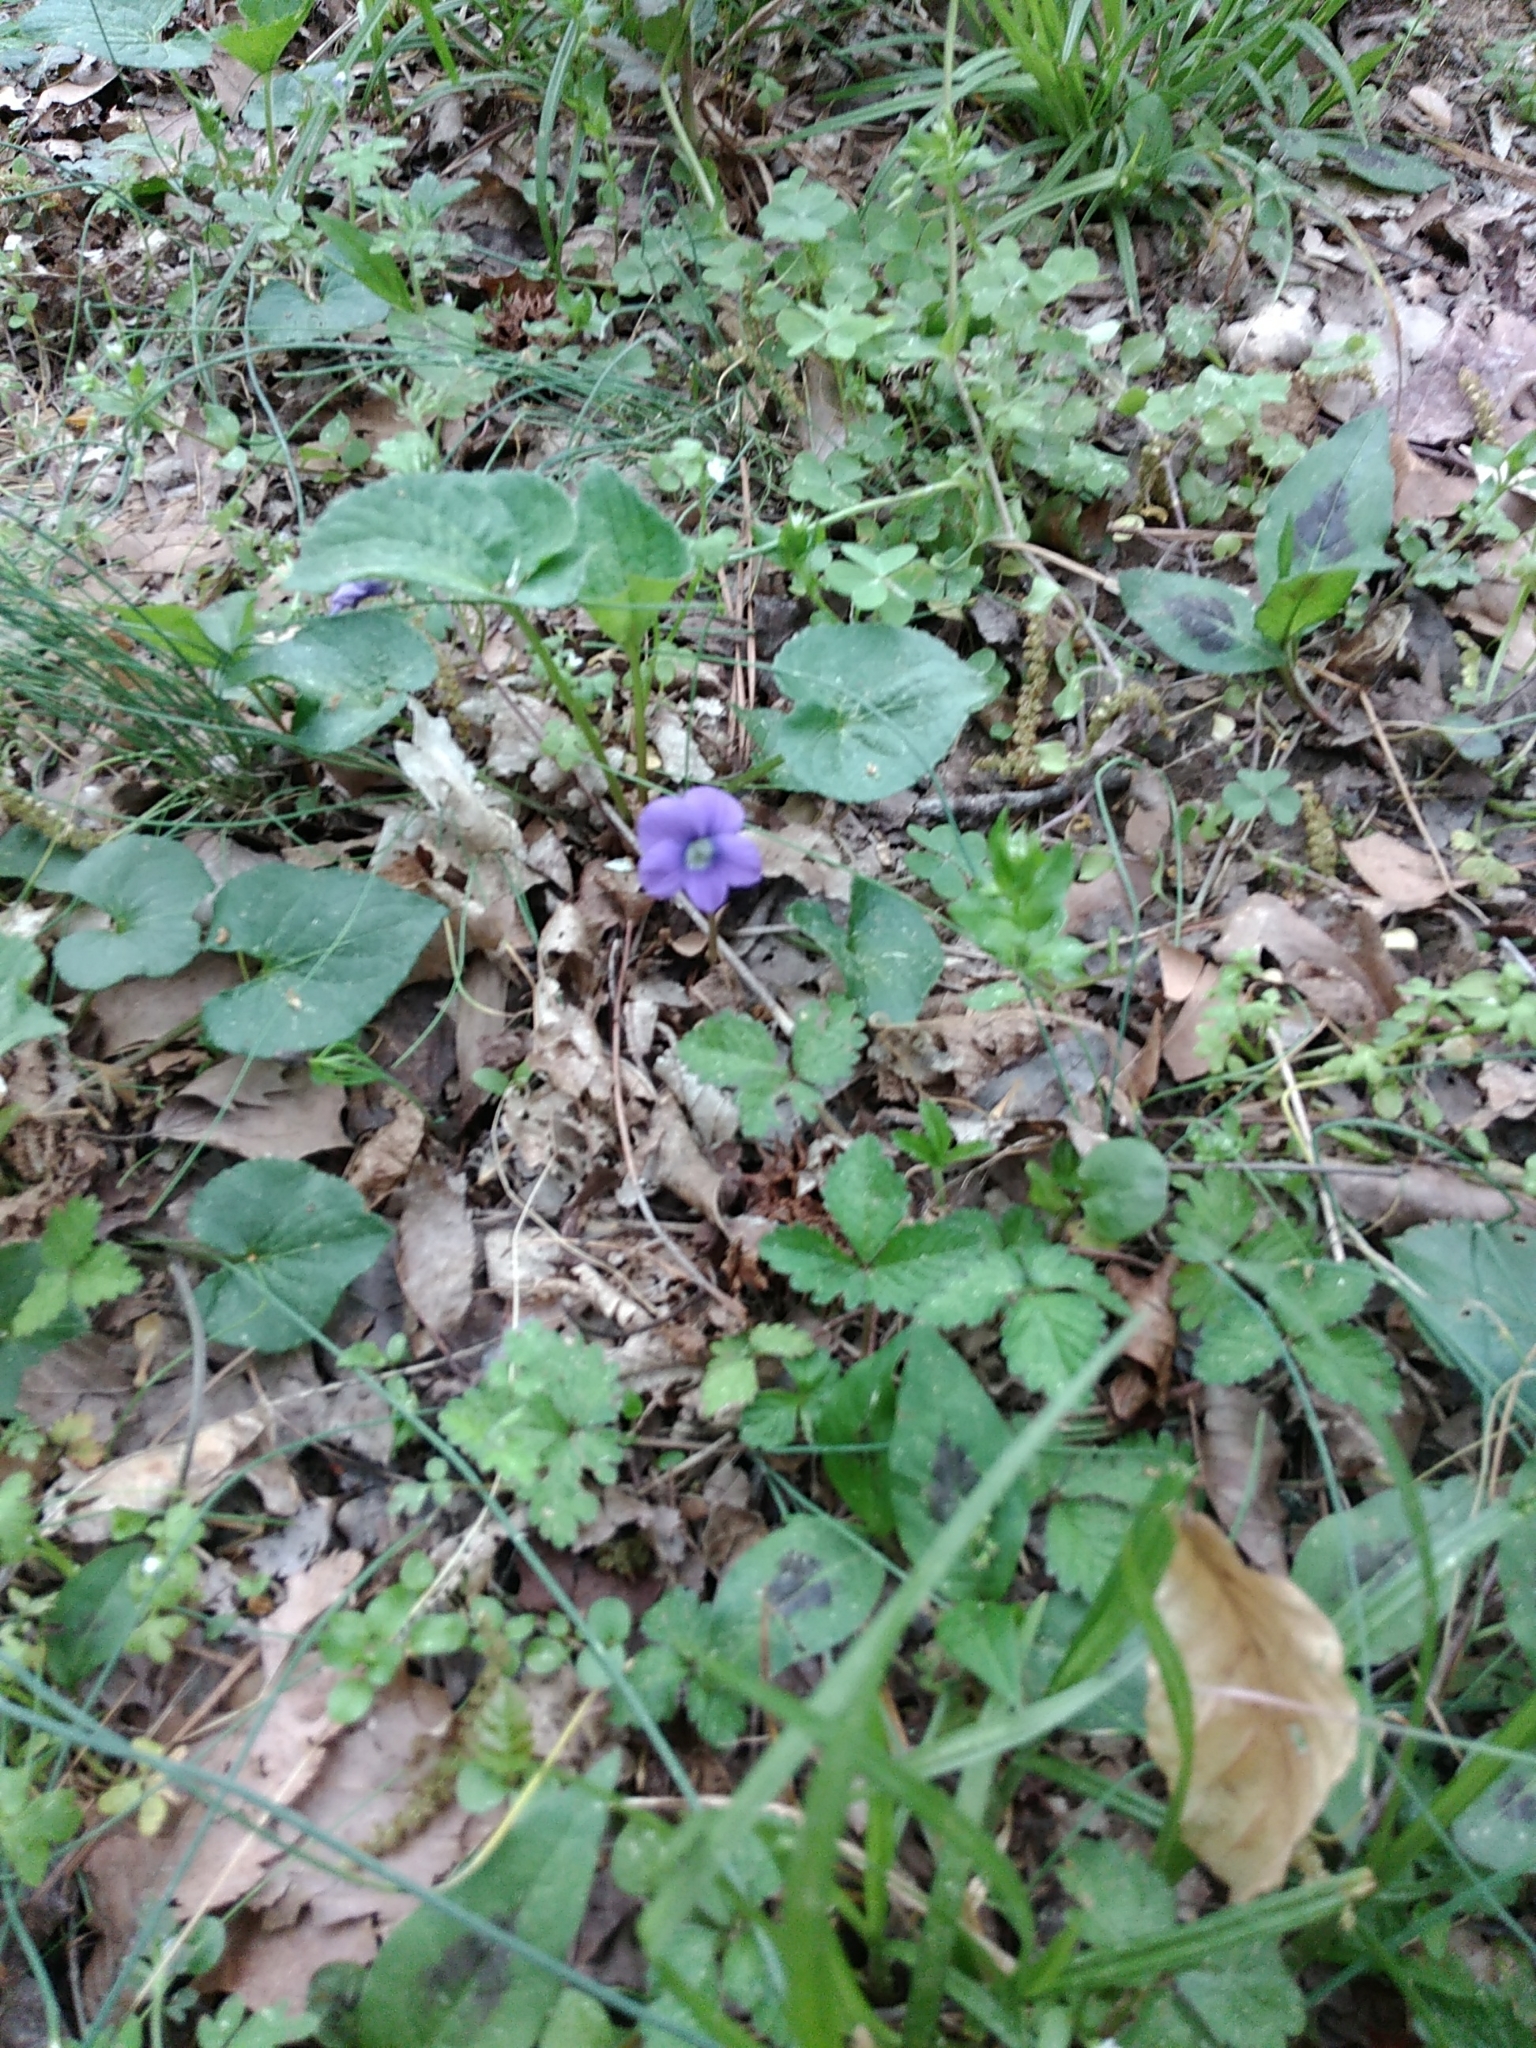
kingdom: Plantae
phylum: Tracheophyta
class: Magnoliopsida
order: Malpighiales
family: Violaceae
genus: Viola
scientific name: Viola sororia
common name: Dooryard violet
